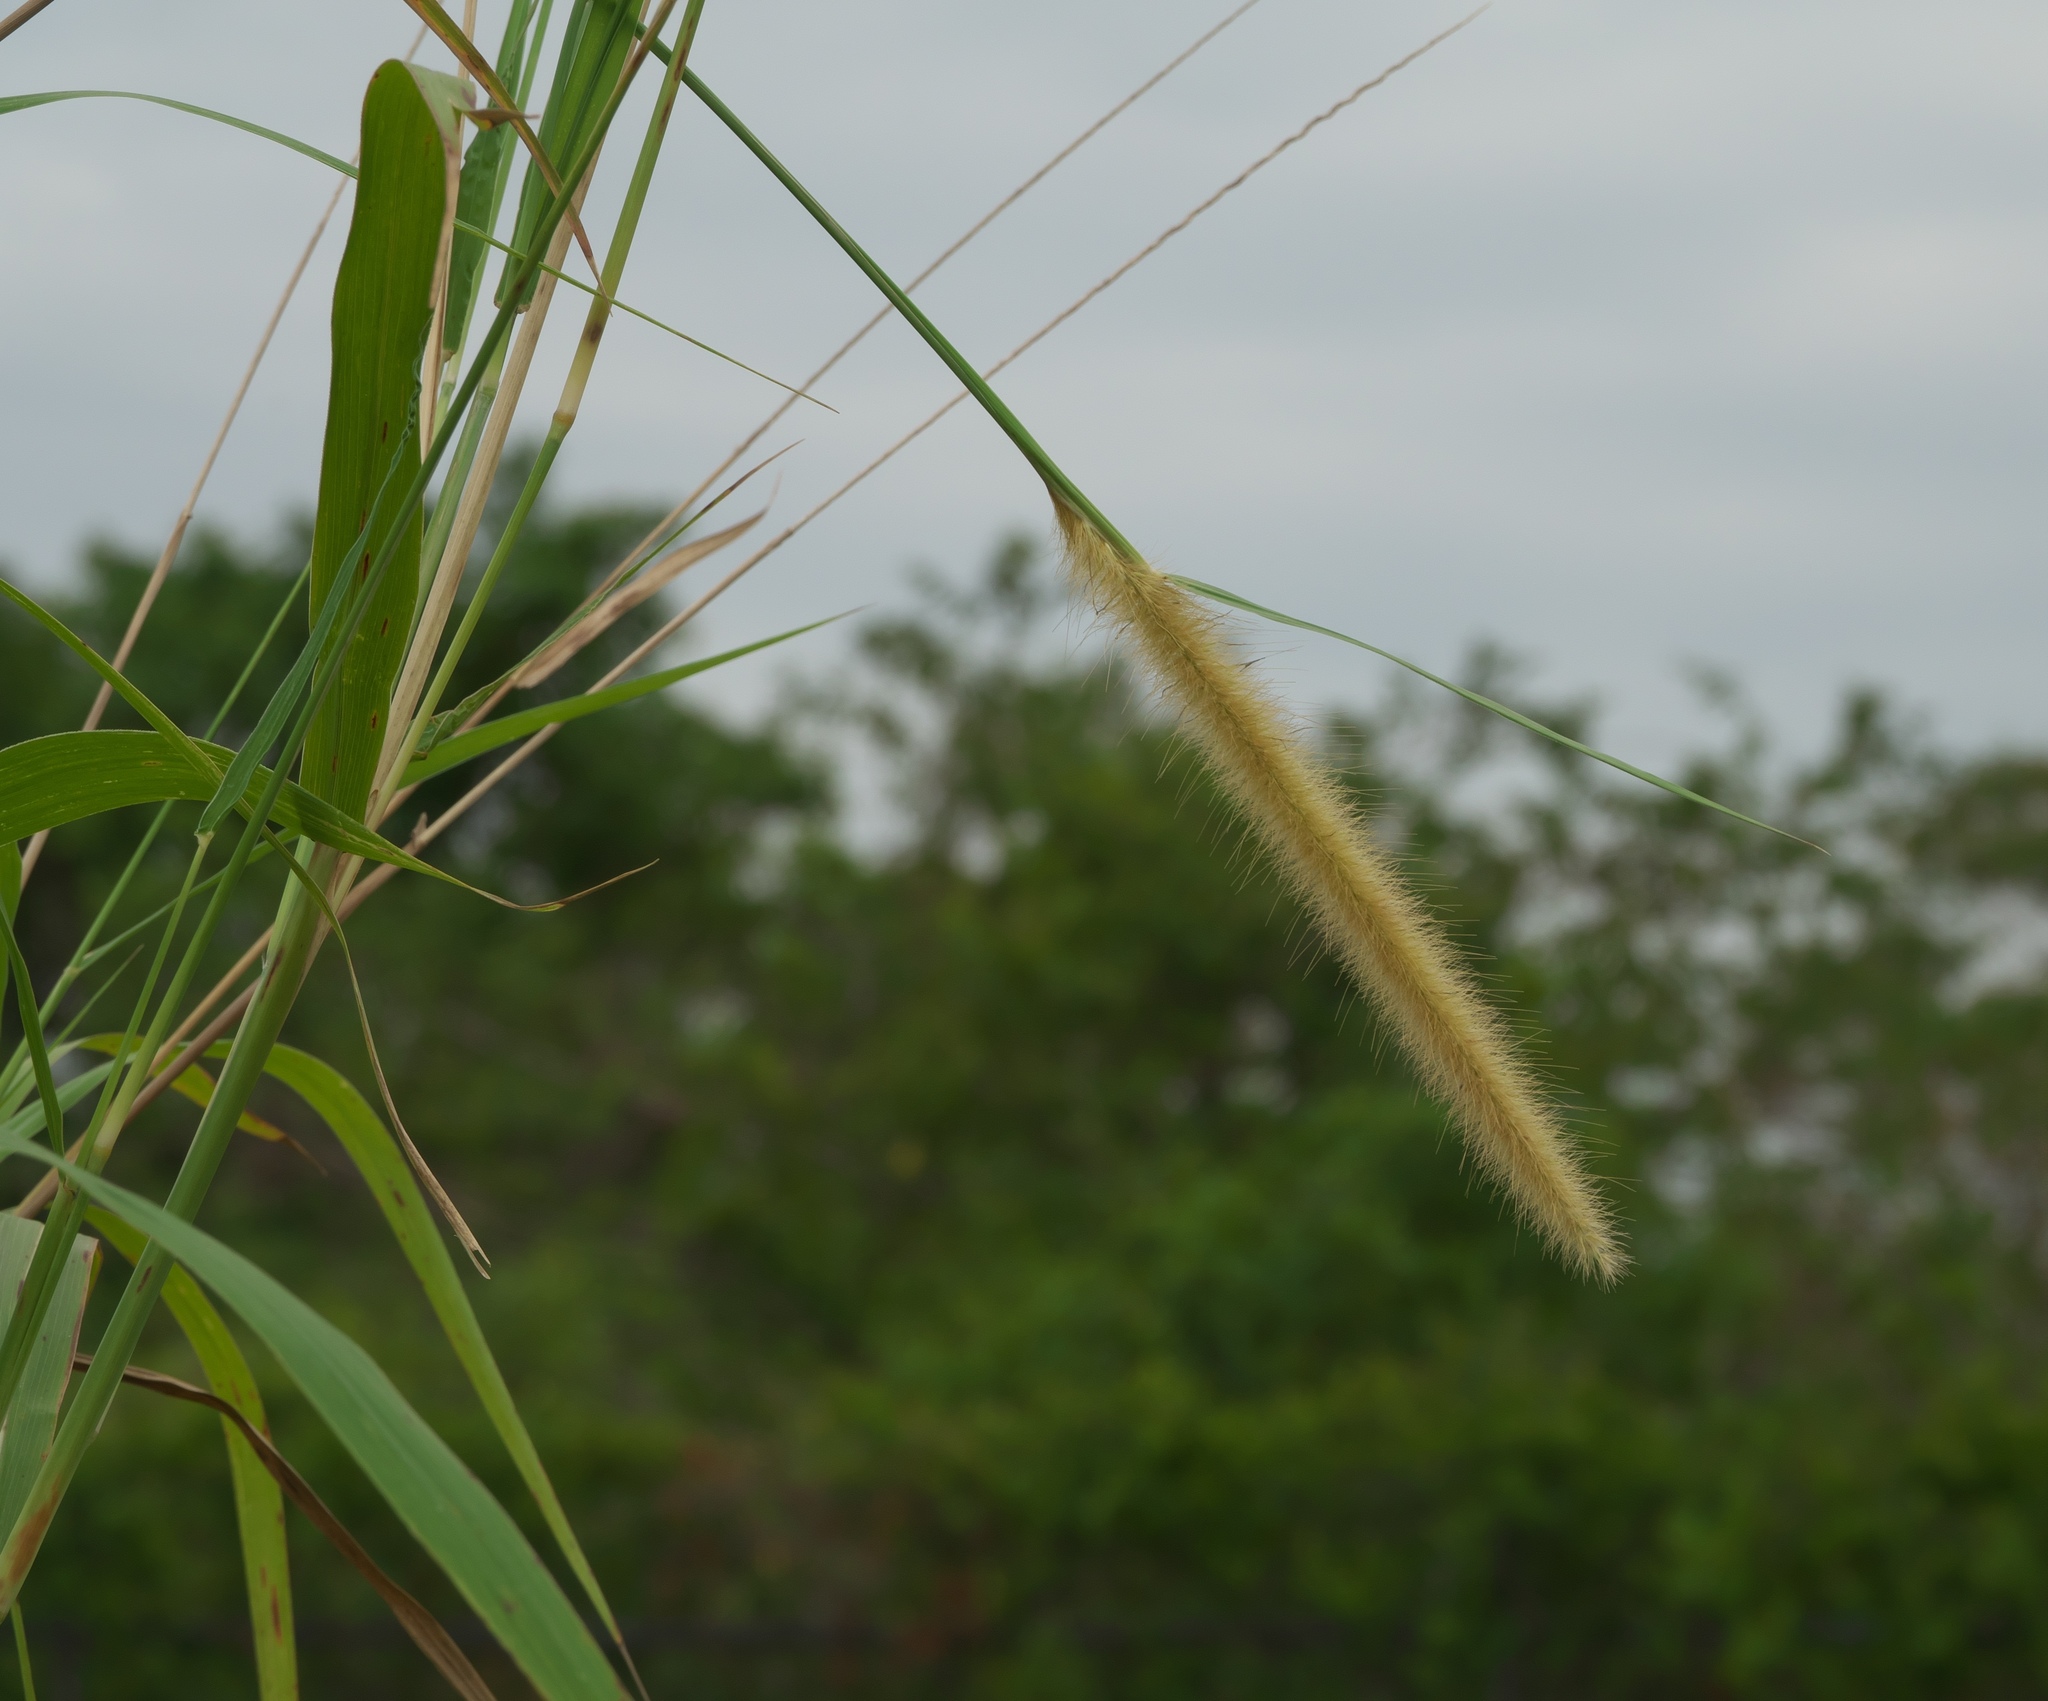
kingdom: Plantae
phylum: Tracheophyta
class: Liliopsida
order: Poales
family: Poaceae
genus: Cenchrus
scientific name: Cenchrus purpureus
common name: Elephant grass
